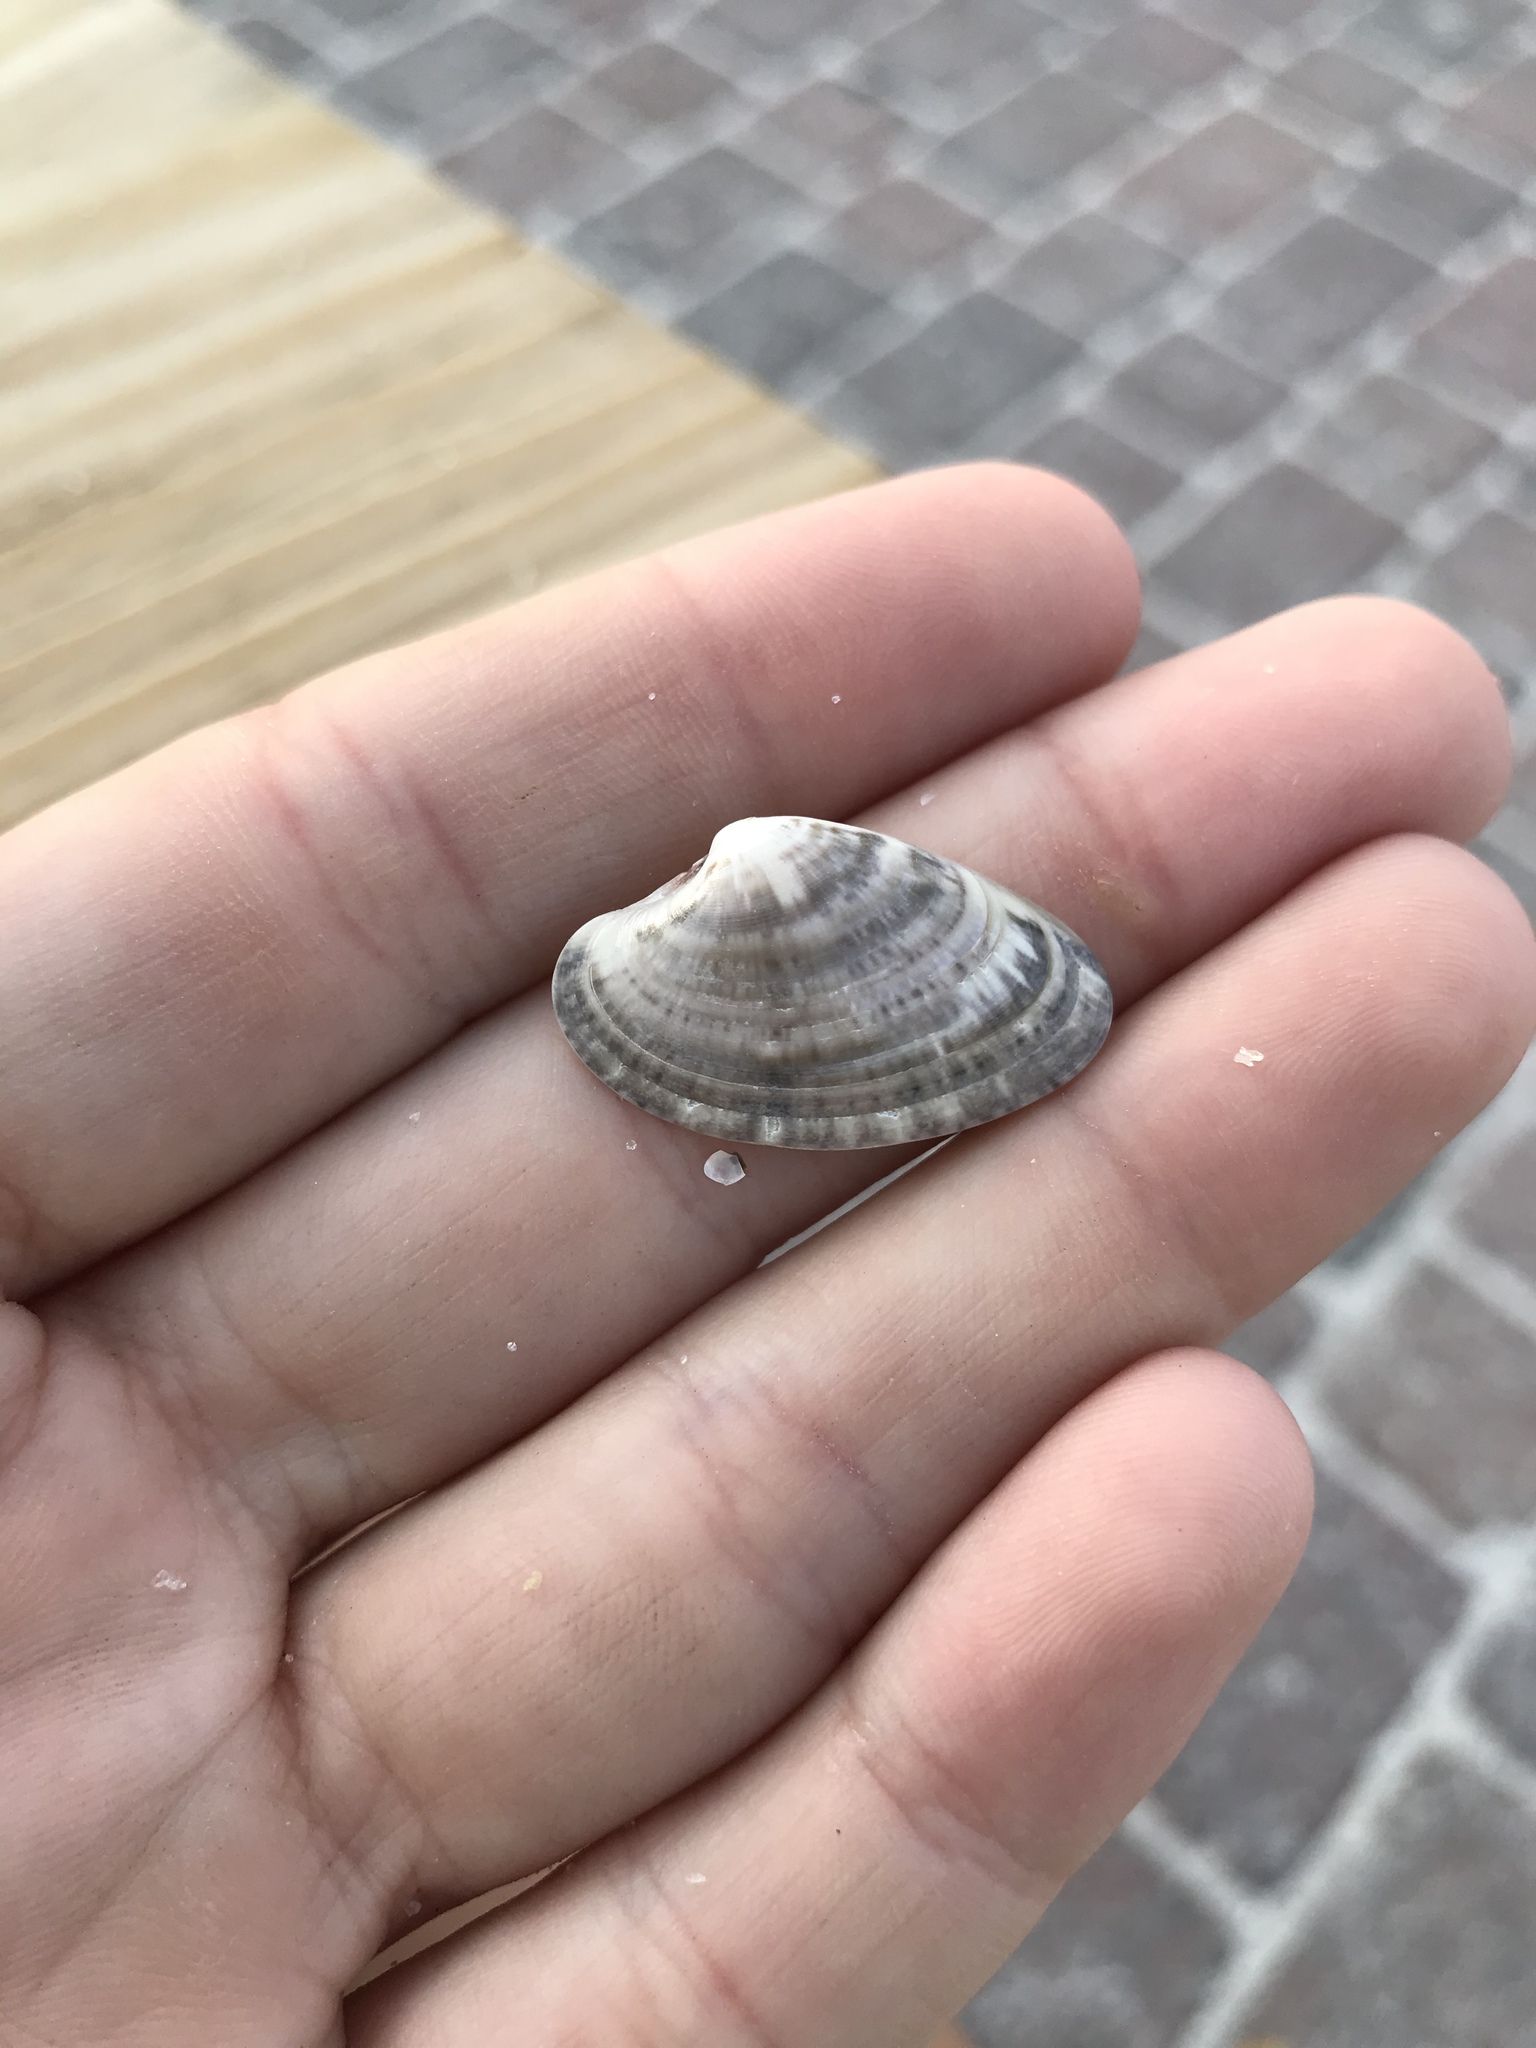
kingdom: Animalia
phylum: Mollusca
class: Bivalvia
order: Venerida
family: Veneridae
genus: Macrocallista
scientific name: Macrocallista nimbosa
